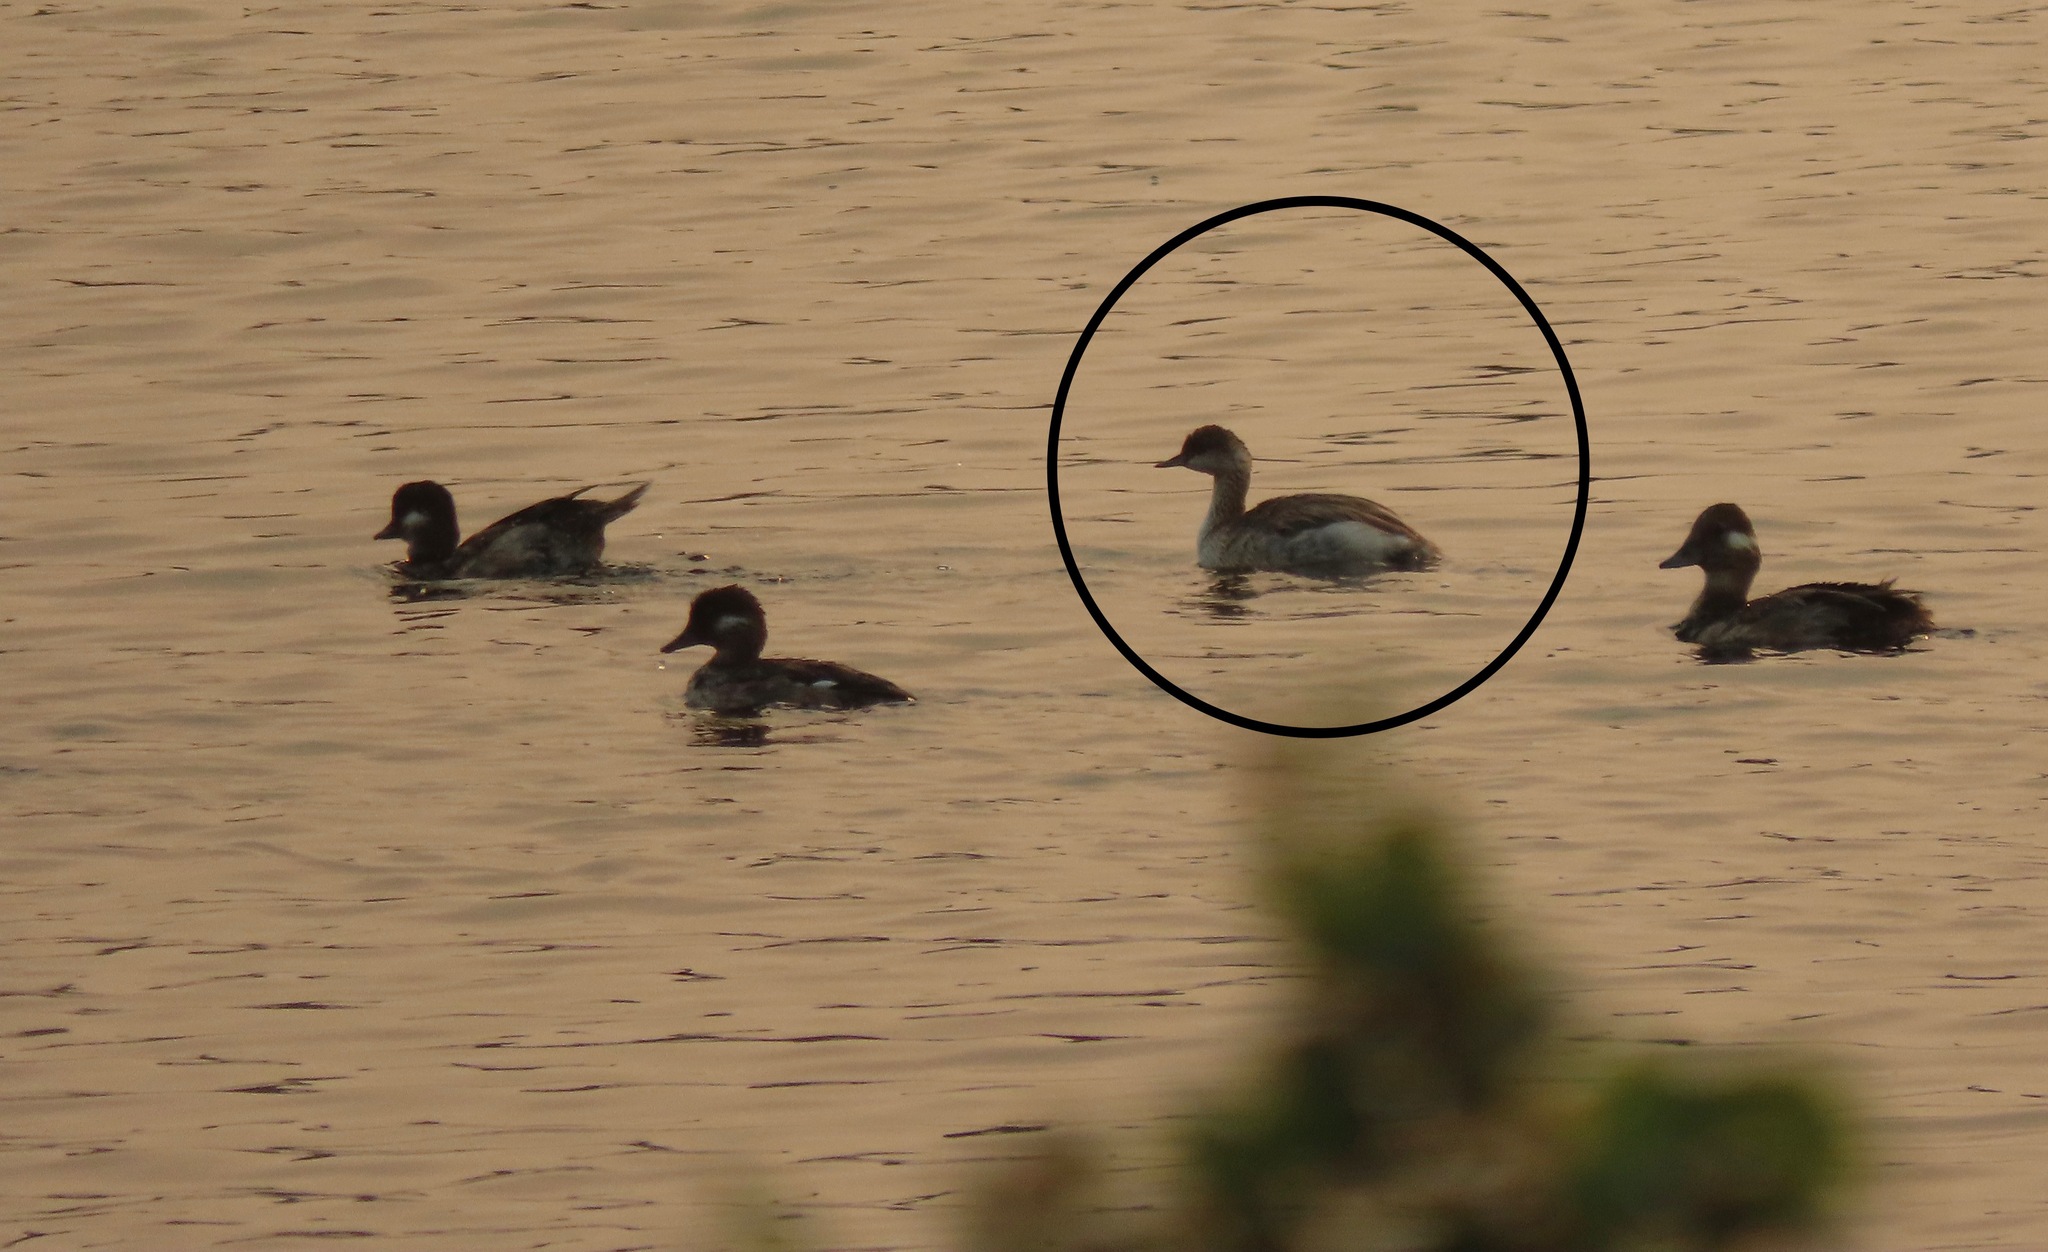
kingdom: Animalia
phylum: Chordata
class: Aves
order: Podicipediformes
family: Podicipedidae
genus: Podiceps
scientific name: Podiceps nigricollis
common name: Black-necked grebe
